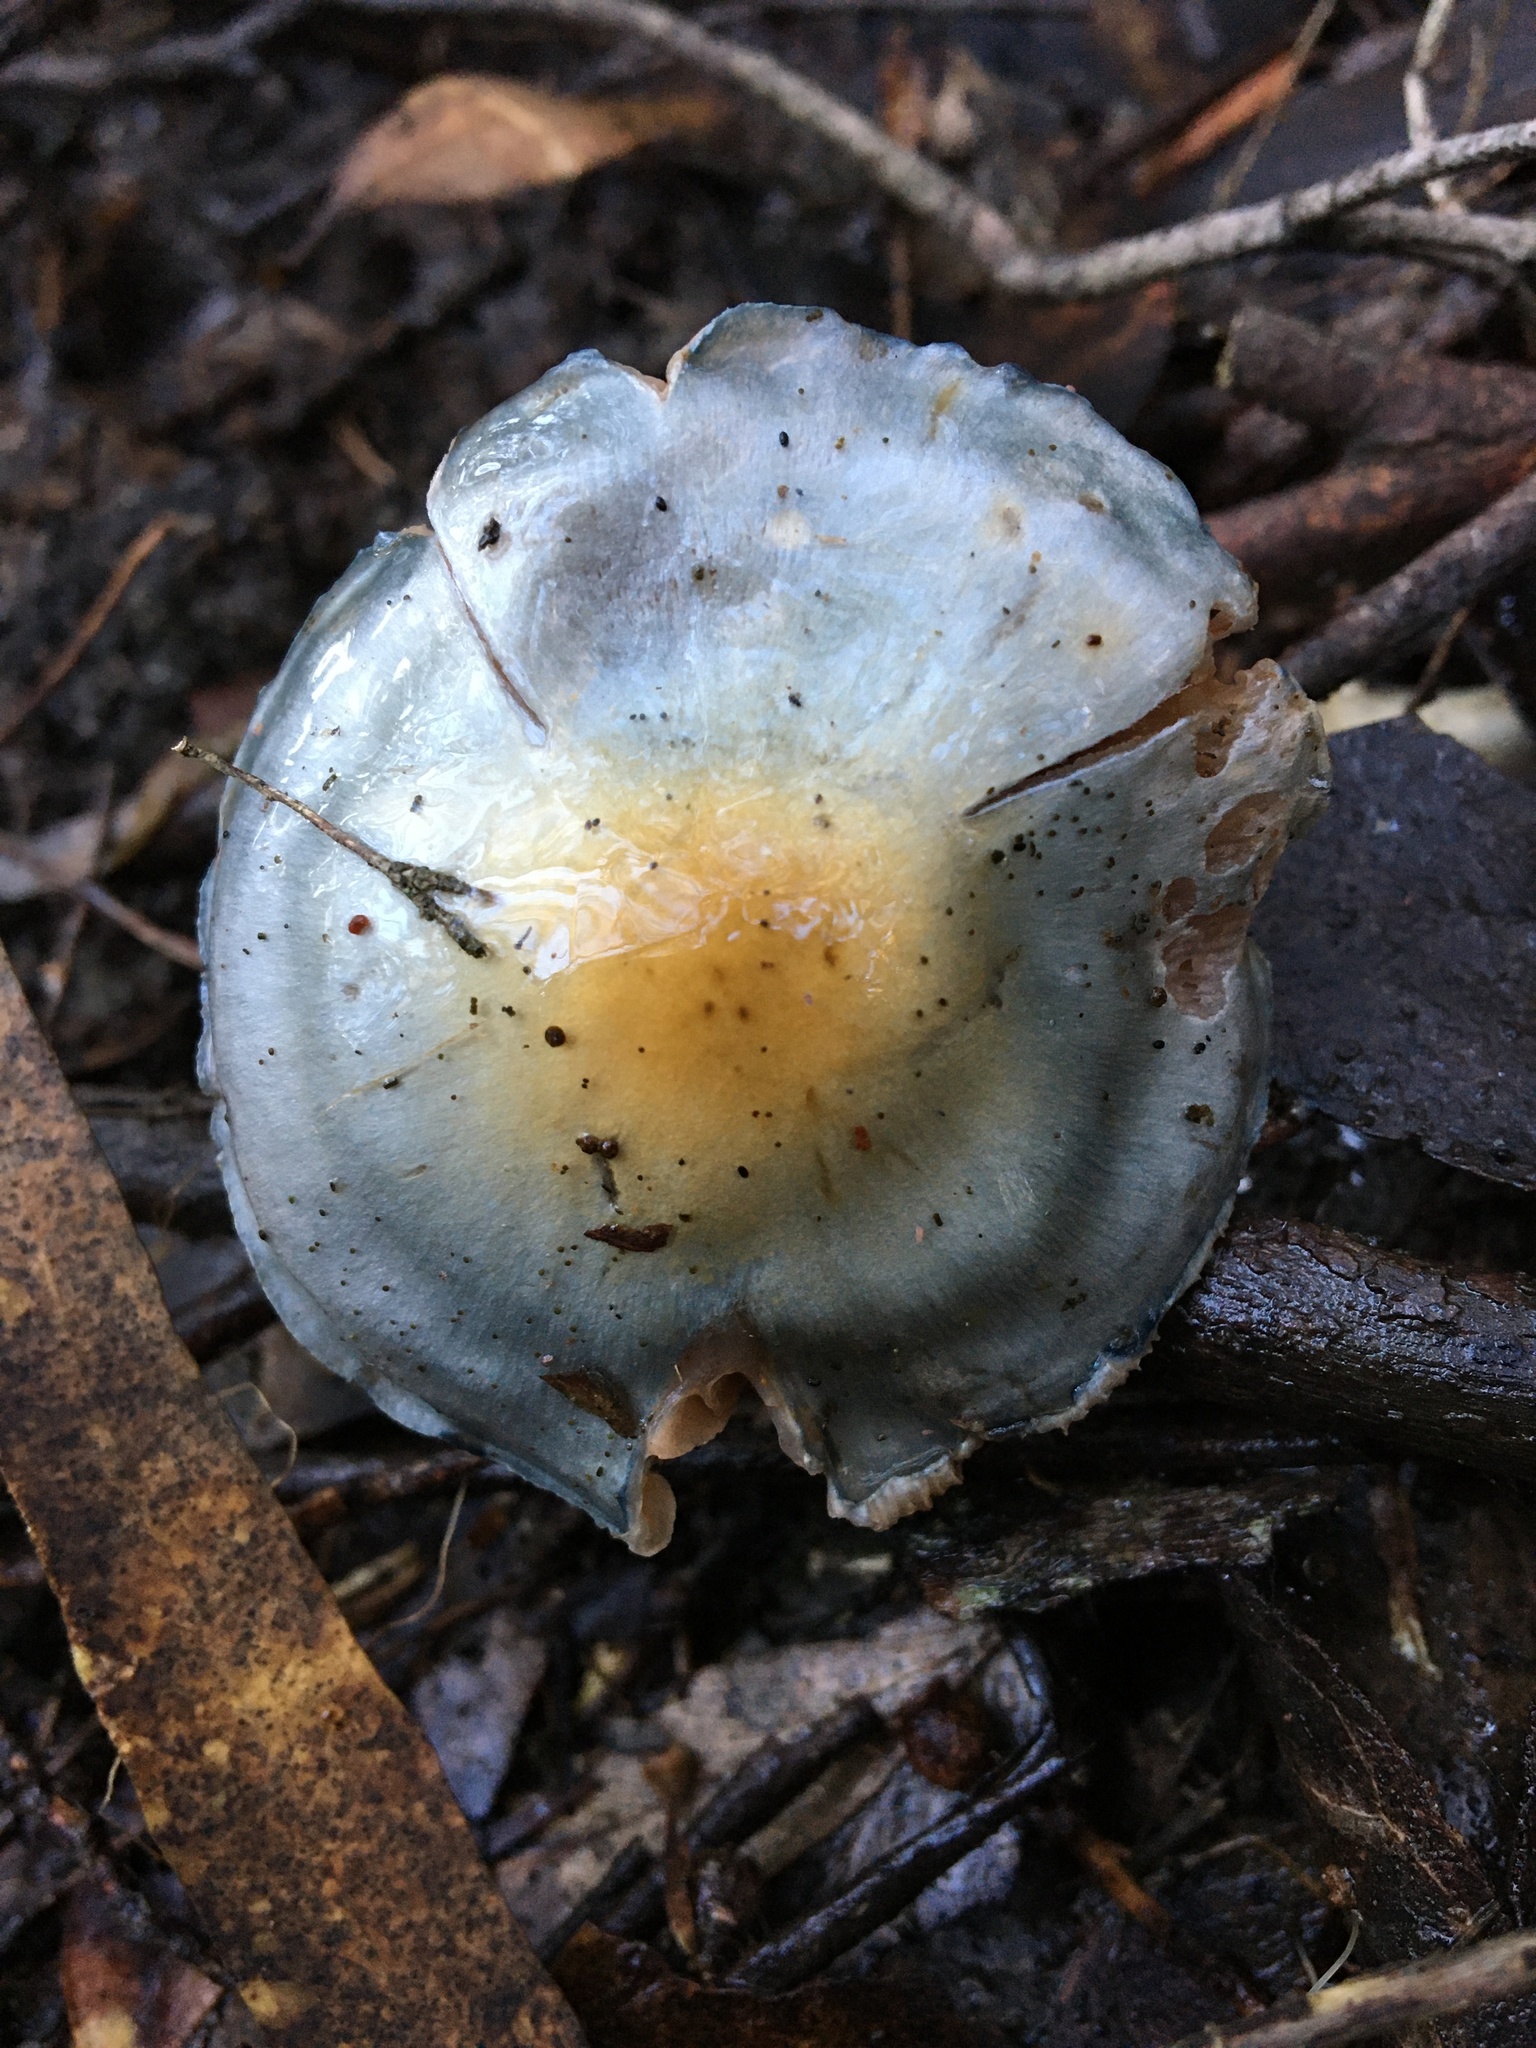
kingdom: Fungi
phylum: Basidiomycota
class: Agaricomycetes
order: Agaricales
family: Cortinariaceae
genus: Cortinarius
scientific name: Cortinarius rotundisporus
